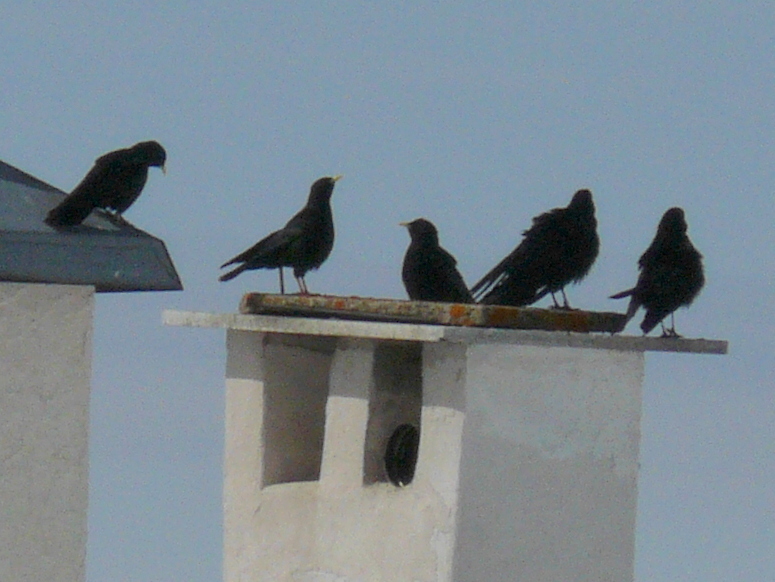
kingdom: Animalia
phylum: Chordata
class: Aves
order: Passeriformes
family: Corvidae
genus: Pyrrhocorax
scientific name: Pyrrhocorax graculus
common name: Alpine chough
